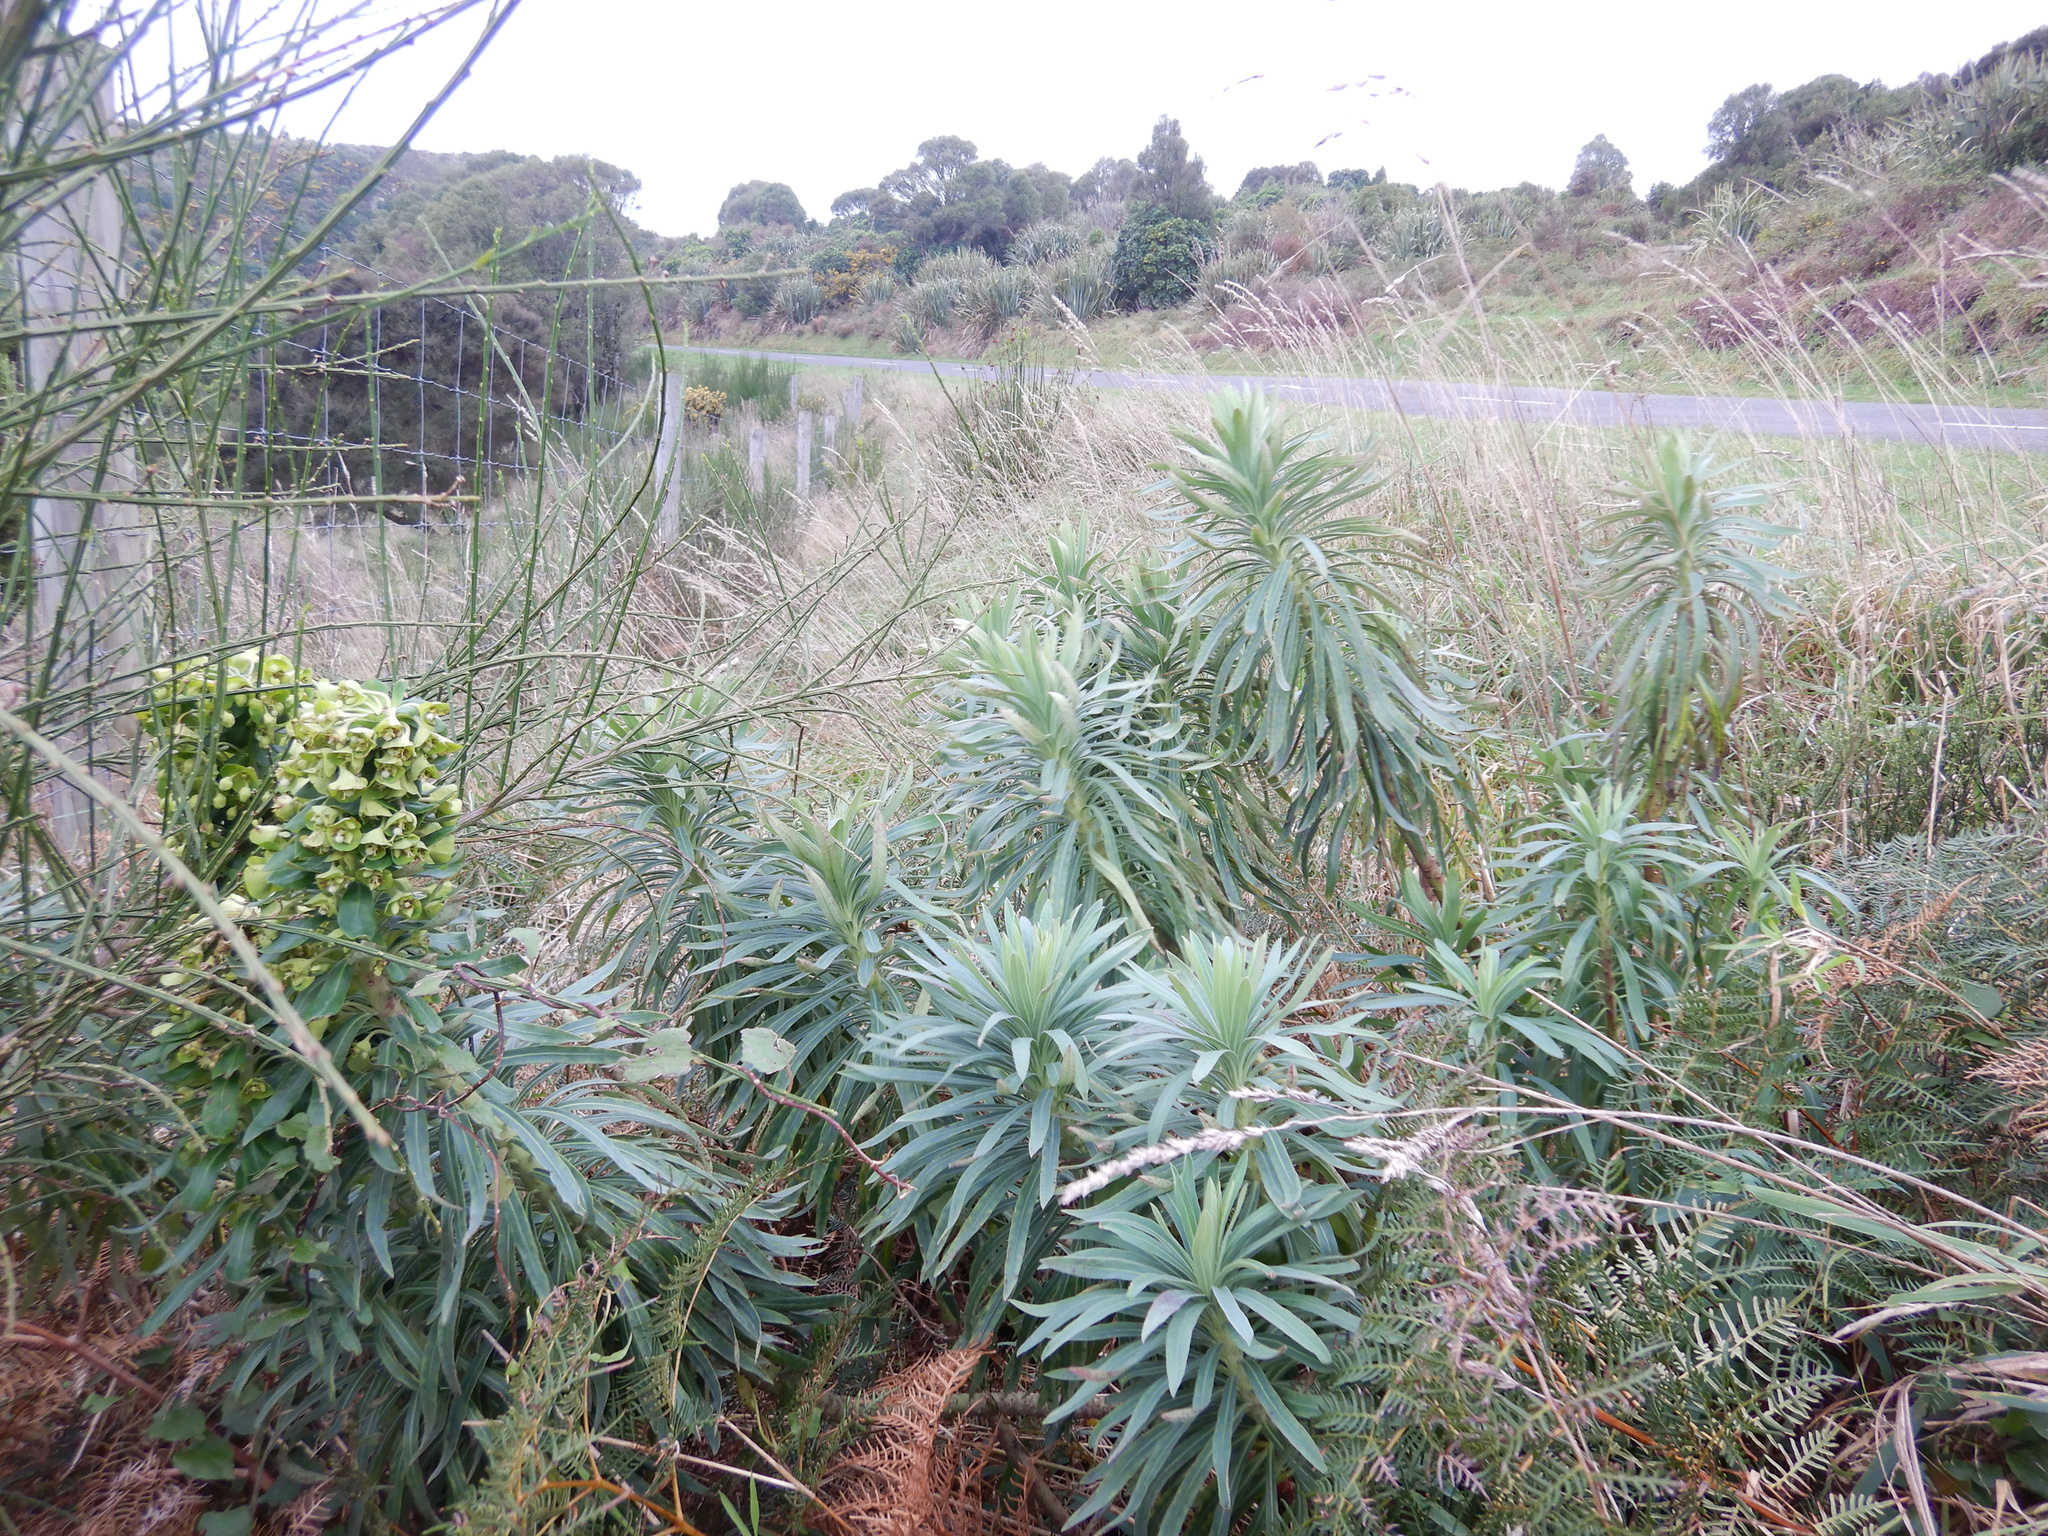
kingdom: Plantae
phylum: Tracheophyta
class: Magnoliopsida
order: Malpighiales
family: Euphorbiaceae
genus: Euphorbia
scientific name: Euphorbia characias
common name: Mediterranean spurge
